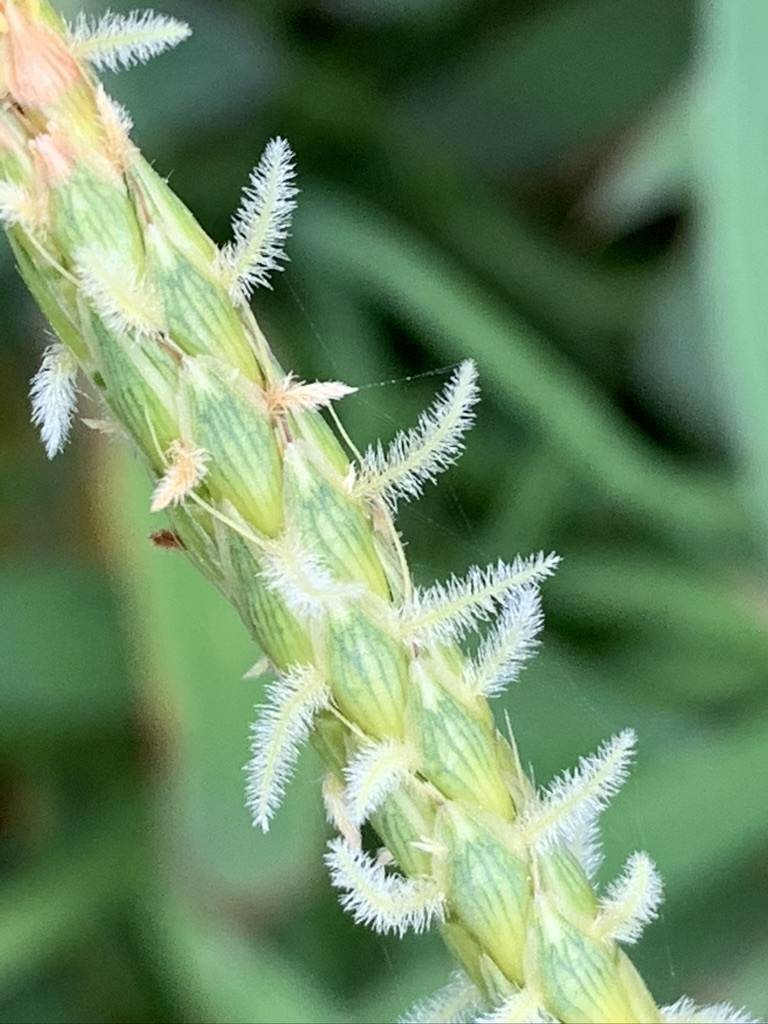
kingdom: Plantae
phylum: Tracheophyta
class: Liliopsida
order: Poales
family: Poaceae
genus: Ischaemum
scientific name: Ischaemum ciliare
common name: Grass
